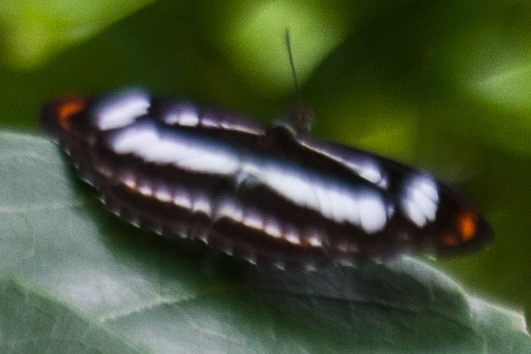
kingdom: Animalia
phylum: Arthropoda
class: Insecta
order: Lepidoptera
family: Nymphalidae
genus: Parathyma
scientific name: Parathyma nefte
